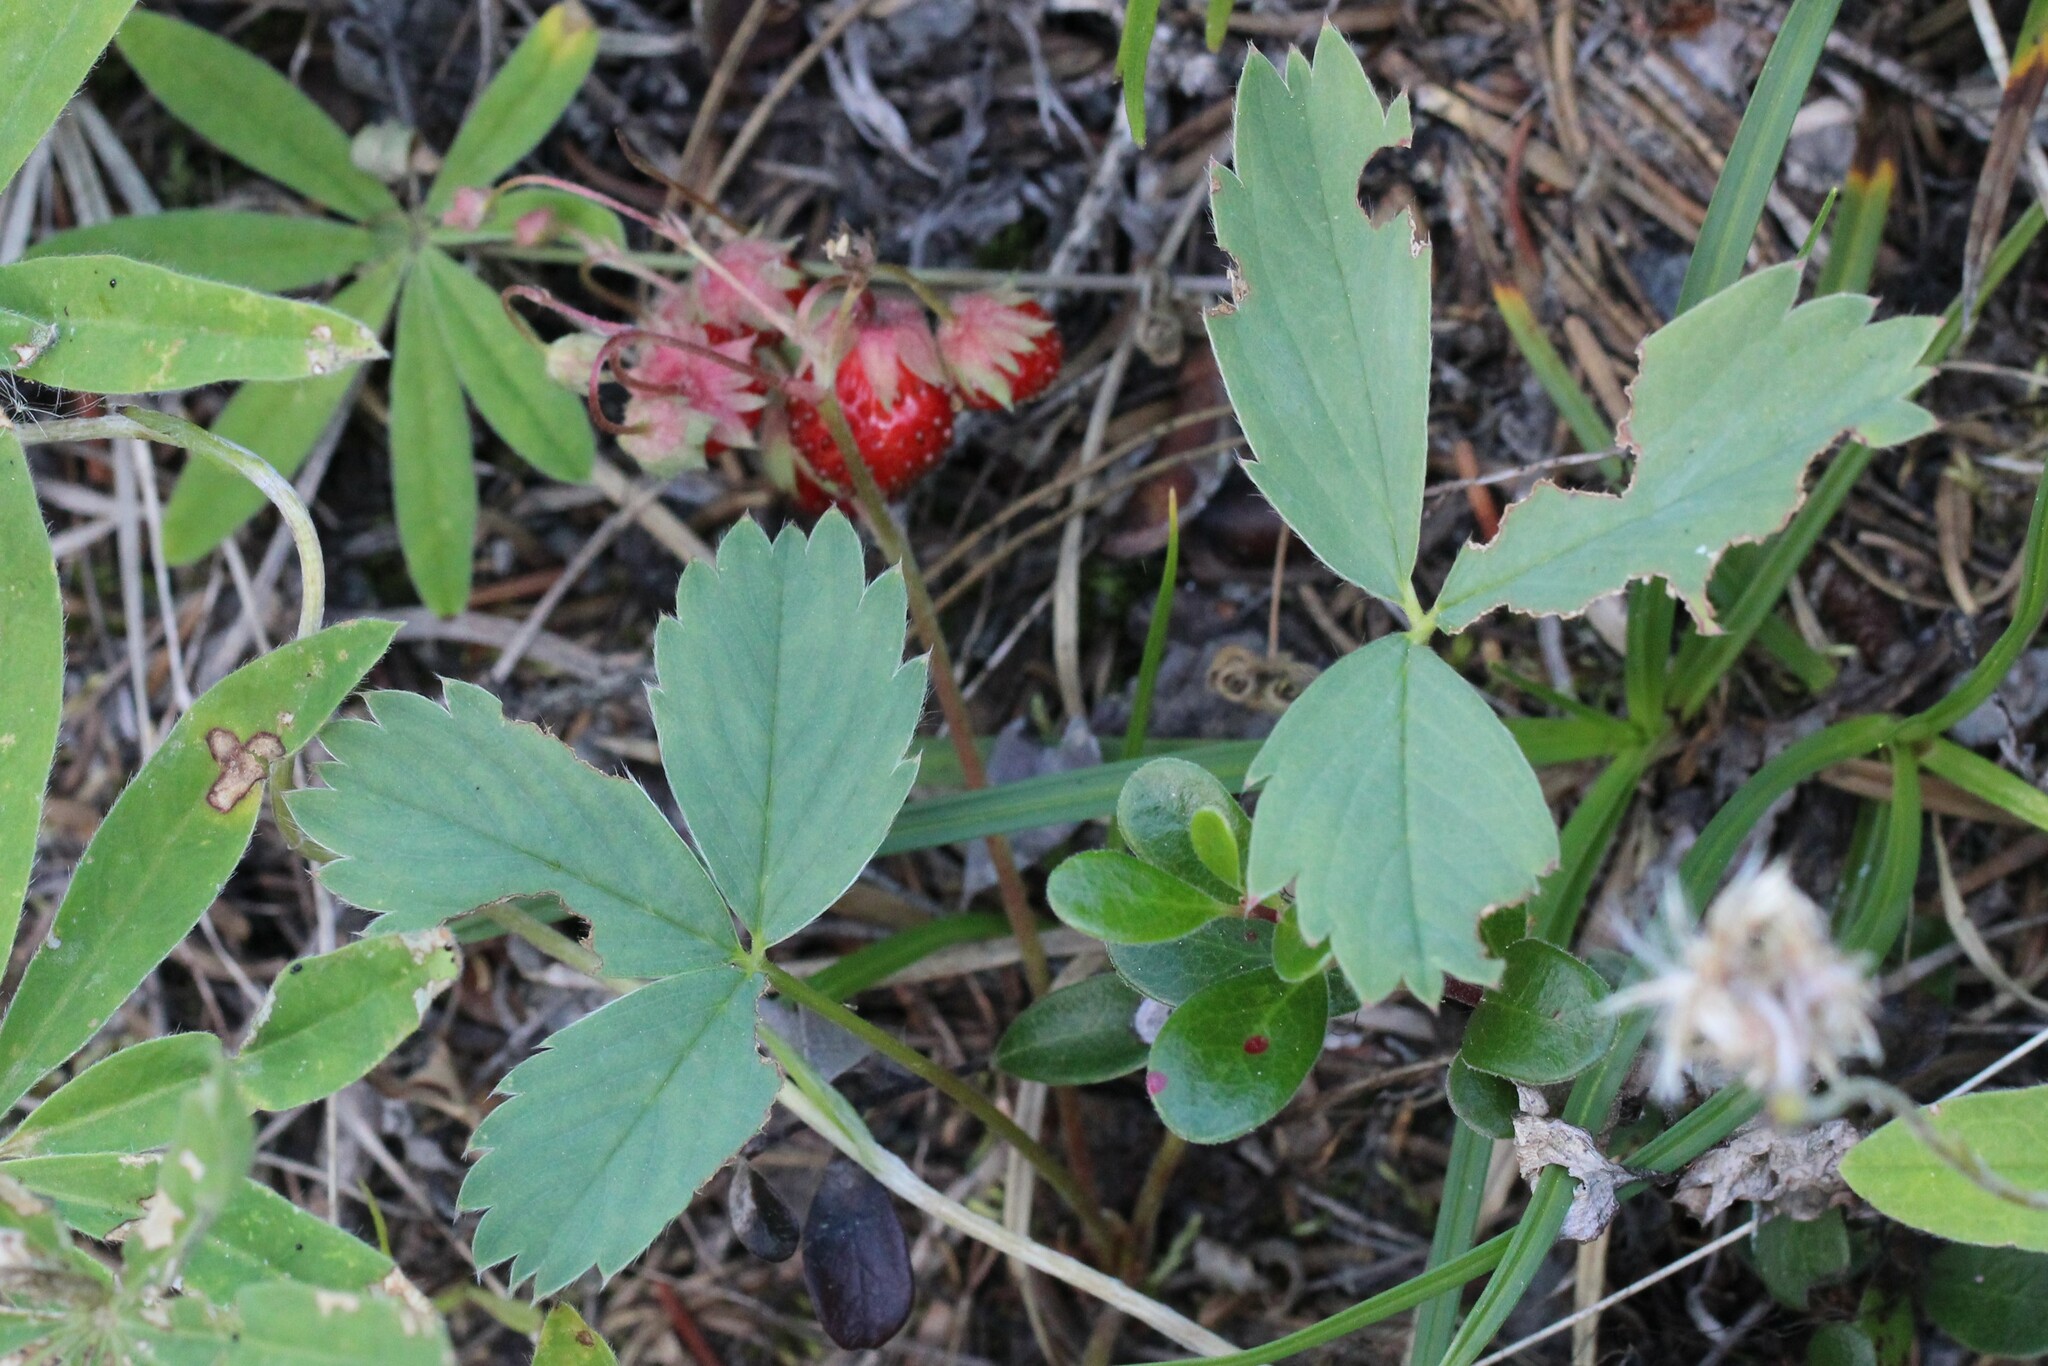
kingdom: Plantae
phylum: Tracheophyta
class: Magnoliopsida
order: Rosales
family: Rosaceae
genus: Fragaria
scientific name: Fragaria virginiana
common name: Thickleaved wild strawberry
